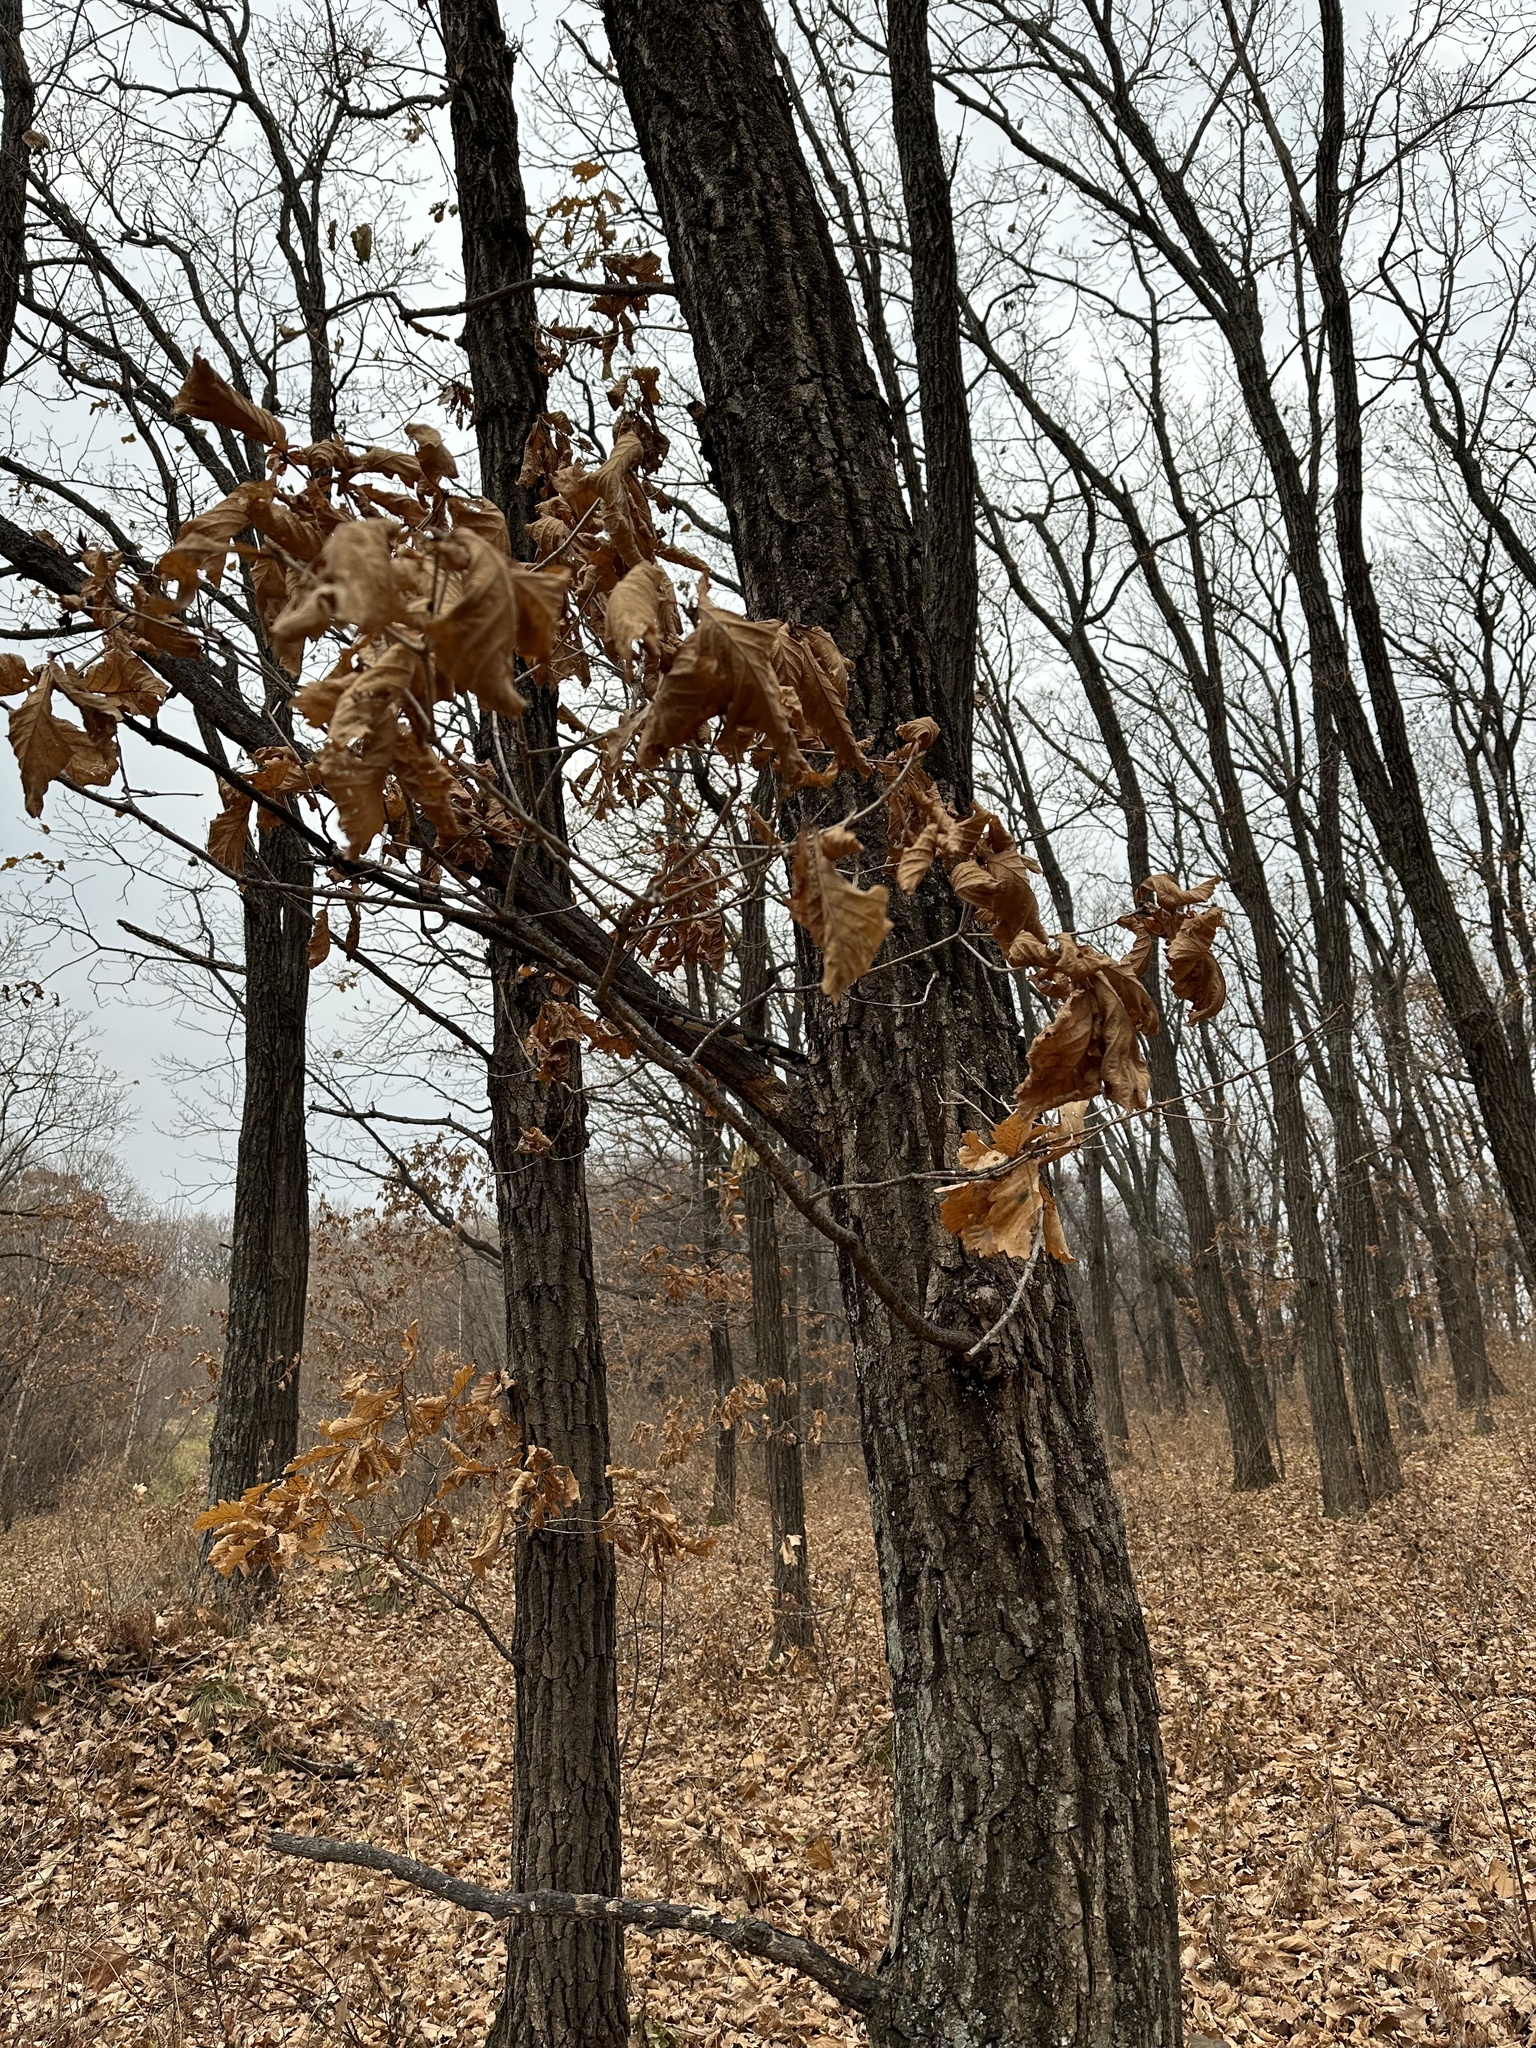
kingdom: Plantae
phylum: Tracheophyta
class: Magnoliopsida
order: Fagales
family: Fagaceae
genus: Quercus
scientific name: Quercus mongolica
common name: Mongolian oak
